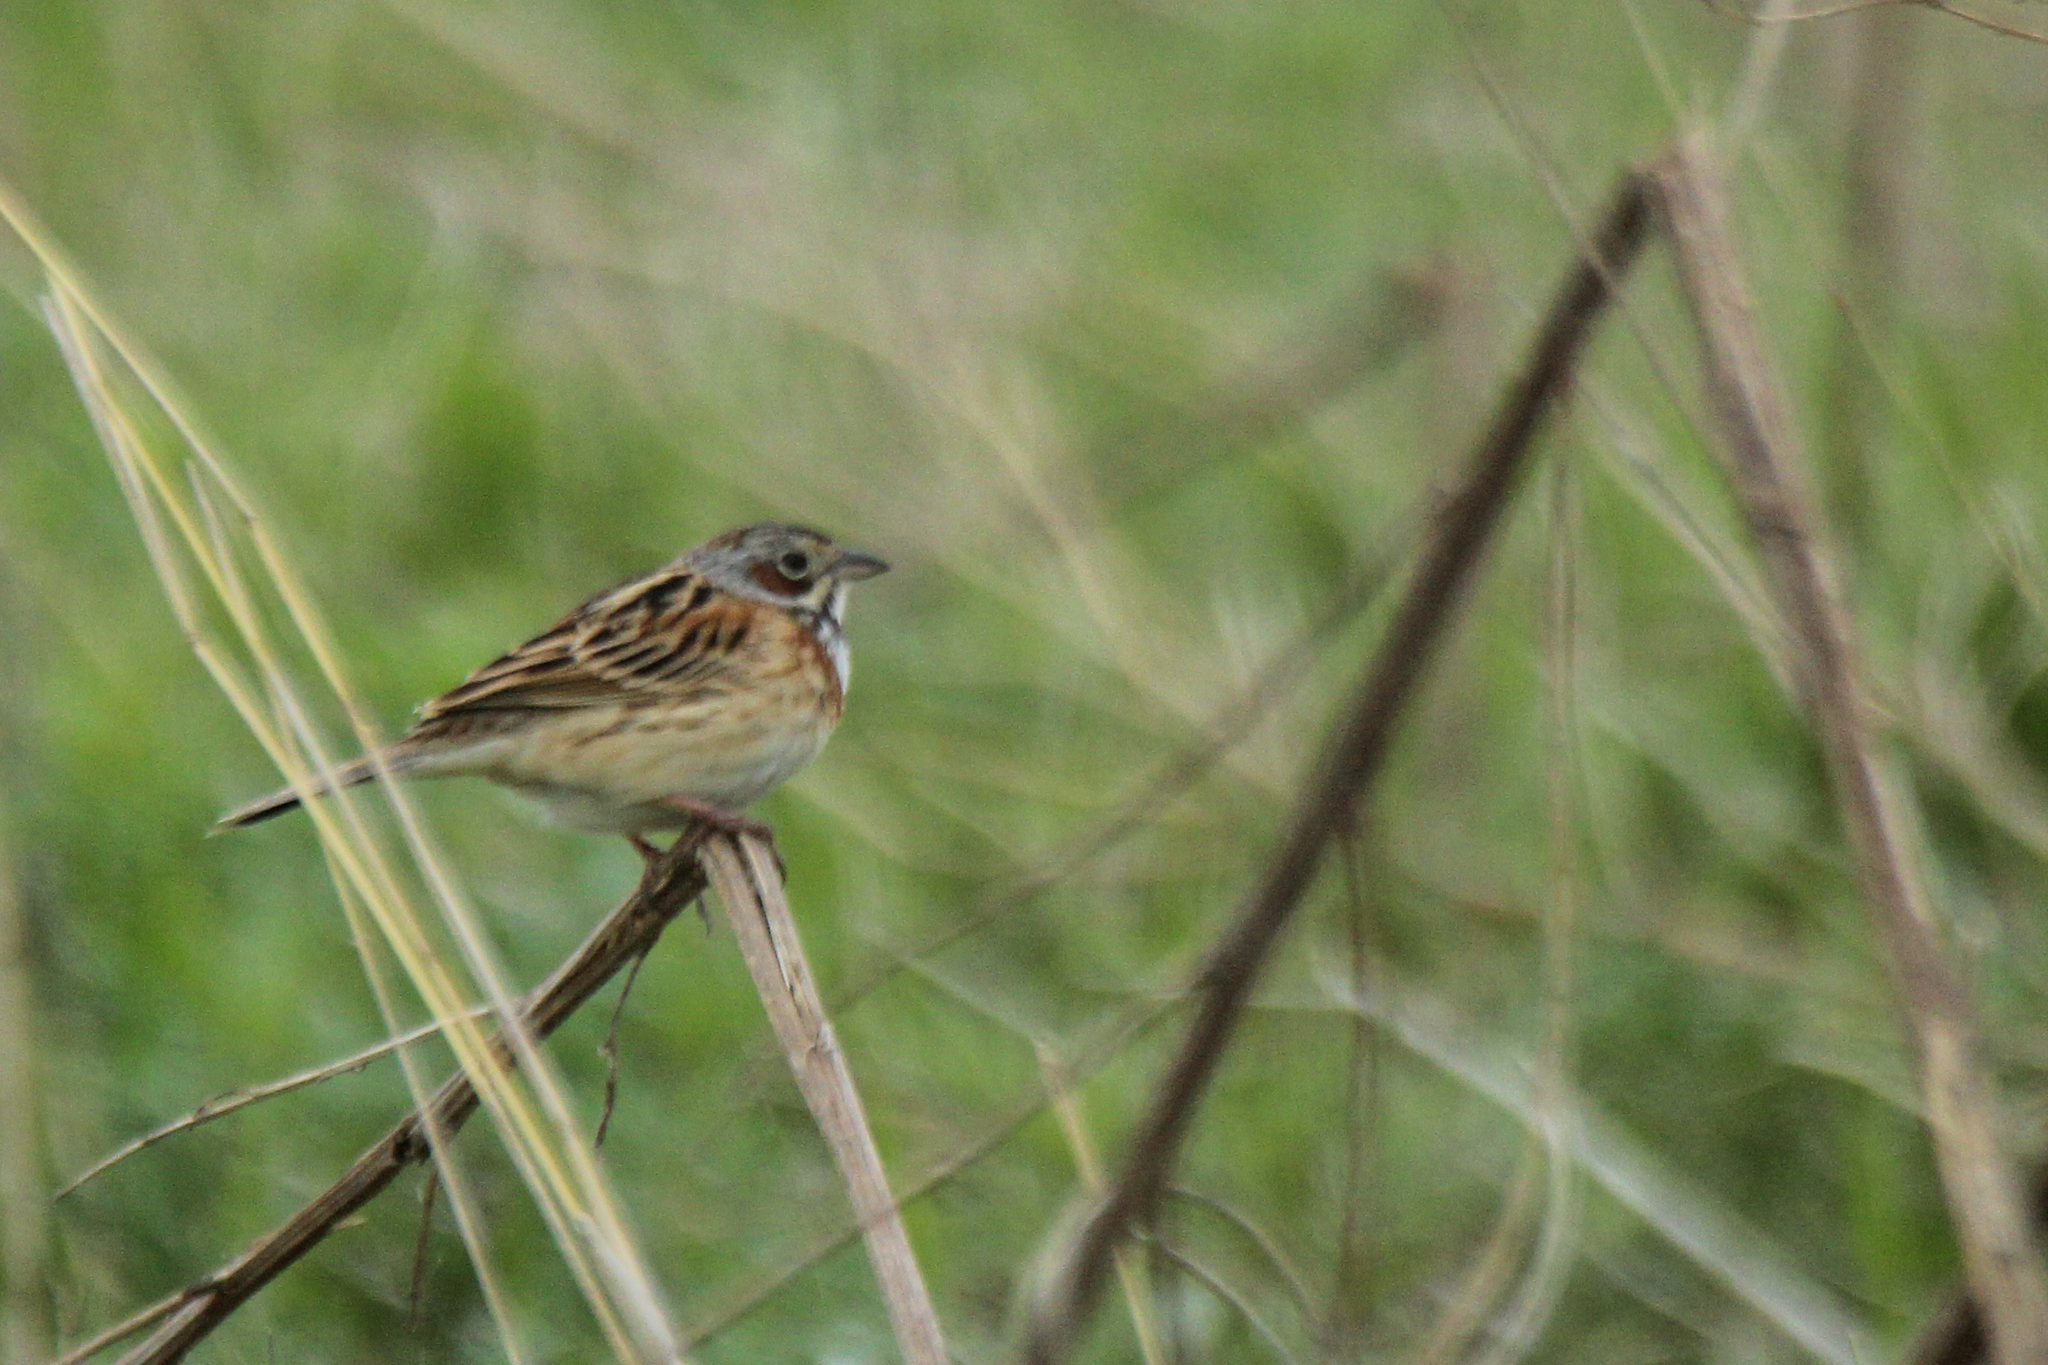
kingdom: Animalia
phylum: Chordata
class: Aves
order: Passeriformes
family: Emberizidae
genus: Emberiza
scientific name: Emberiza fucata
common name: Chestnut-eared bunting
